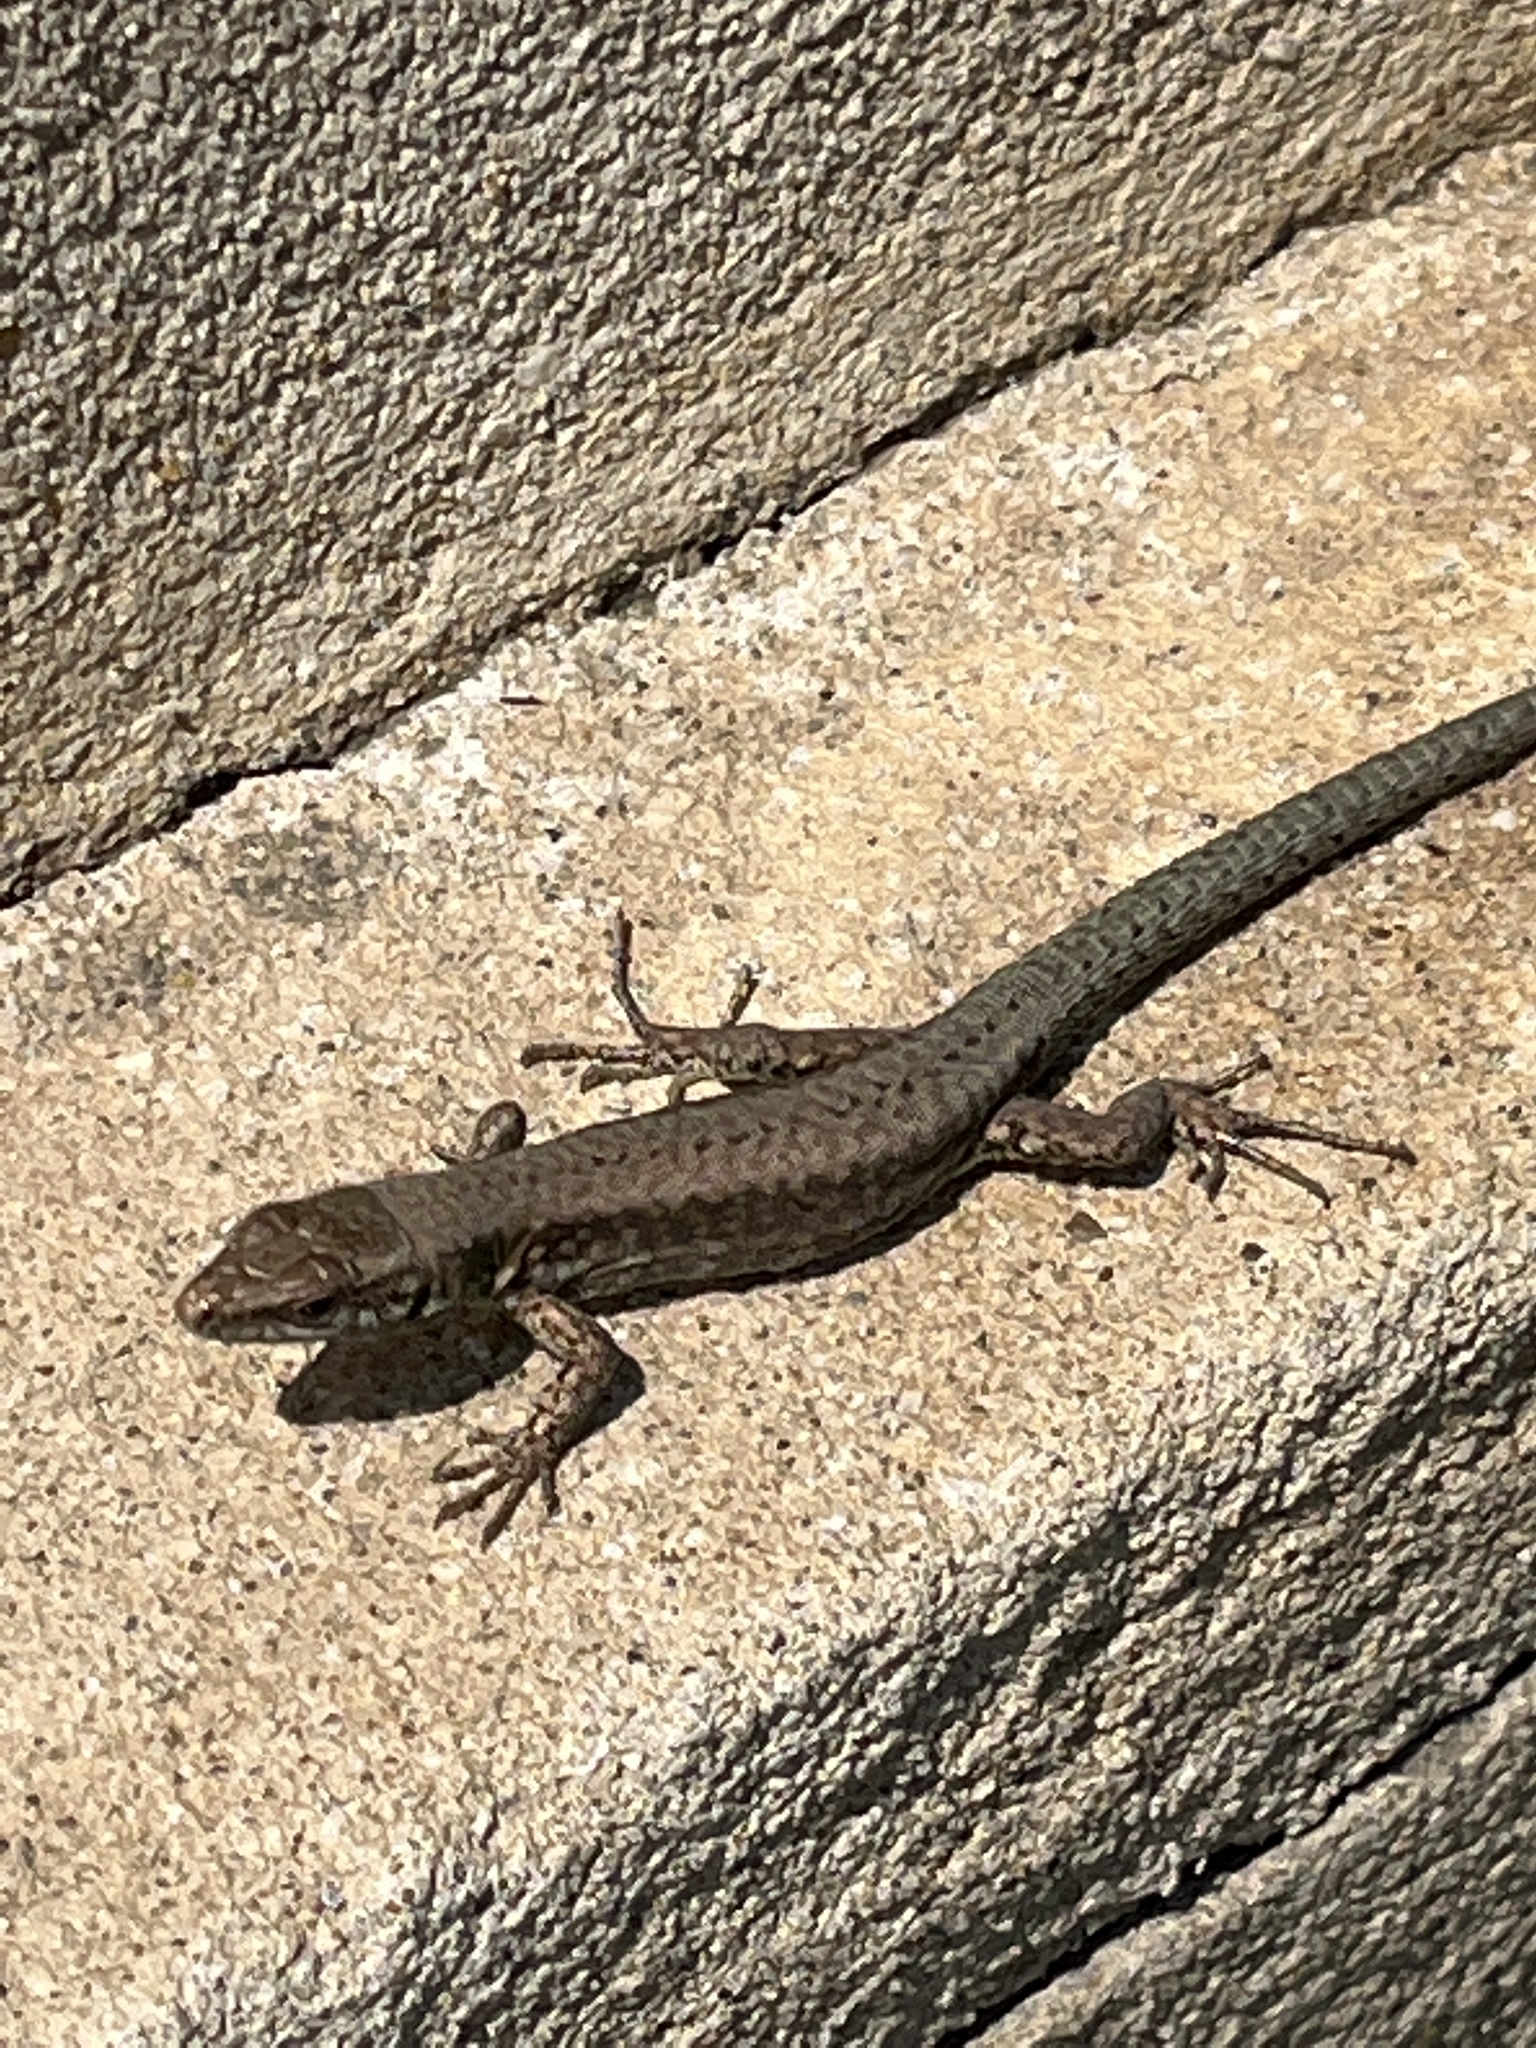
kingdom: Animalia
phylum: Chordata
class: Squamata
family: Lacertidae
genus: Podarcis
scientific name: Podarcis muralis
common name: Common wall lizard
